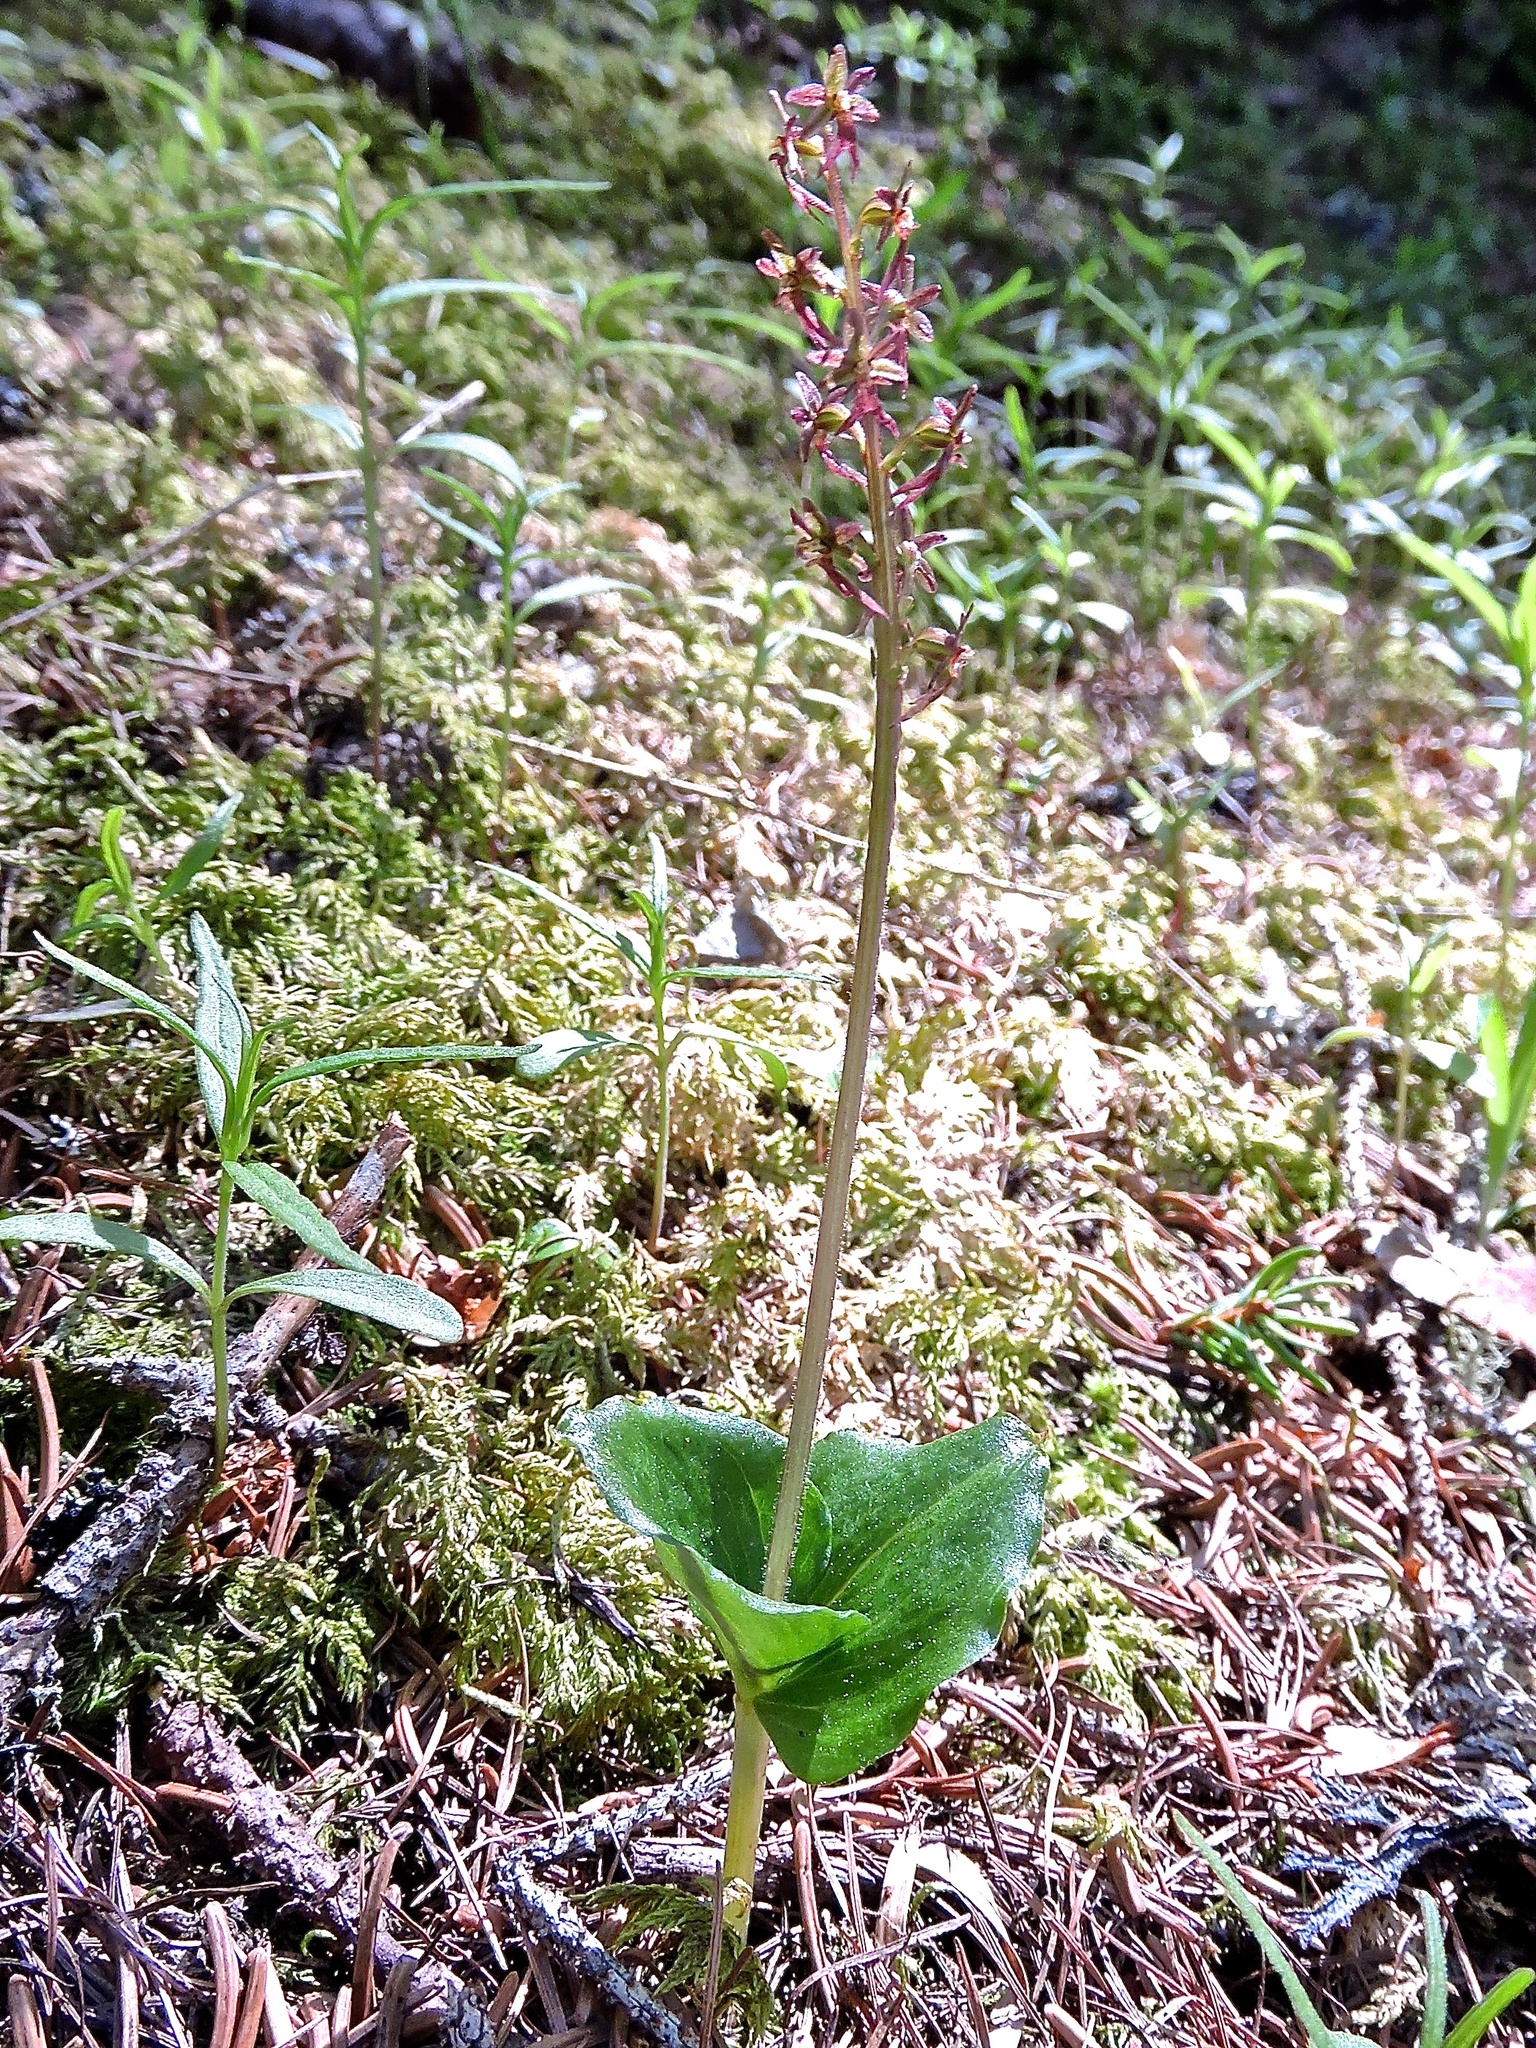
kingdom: Plantae
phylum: Tracheophyta
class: Liliopsida
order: Asparagales
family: Orchidaceae
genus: Neottia
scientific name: Neottia cordata
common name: Lesser twayblade
